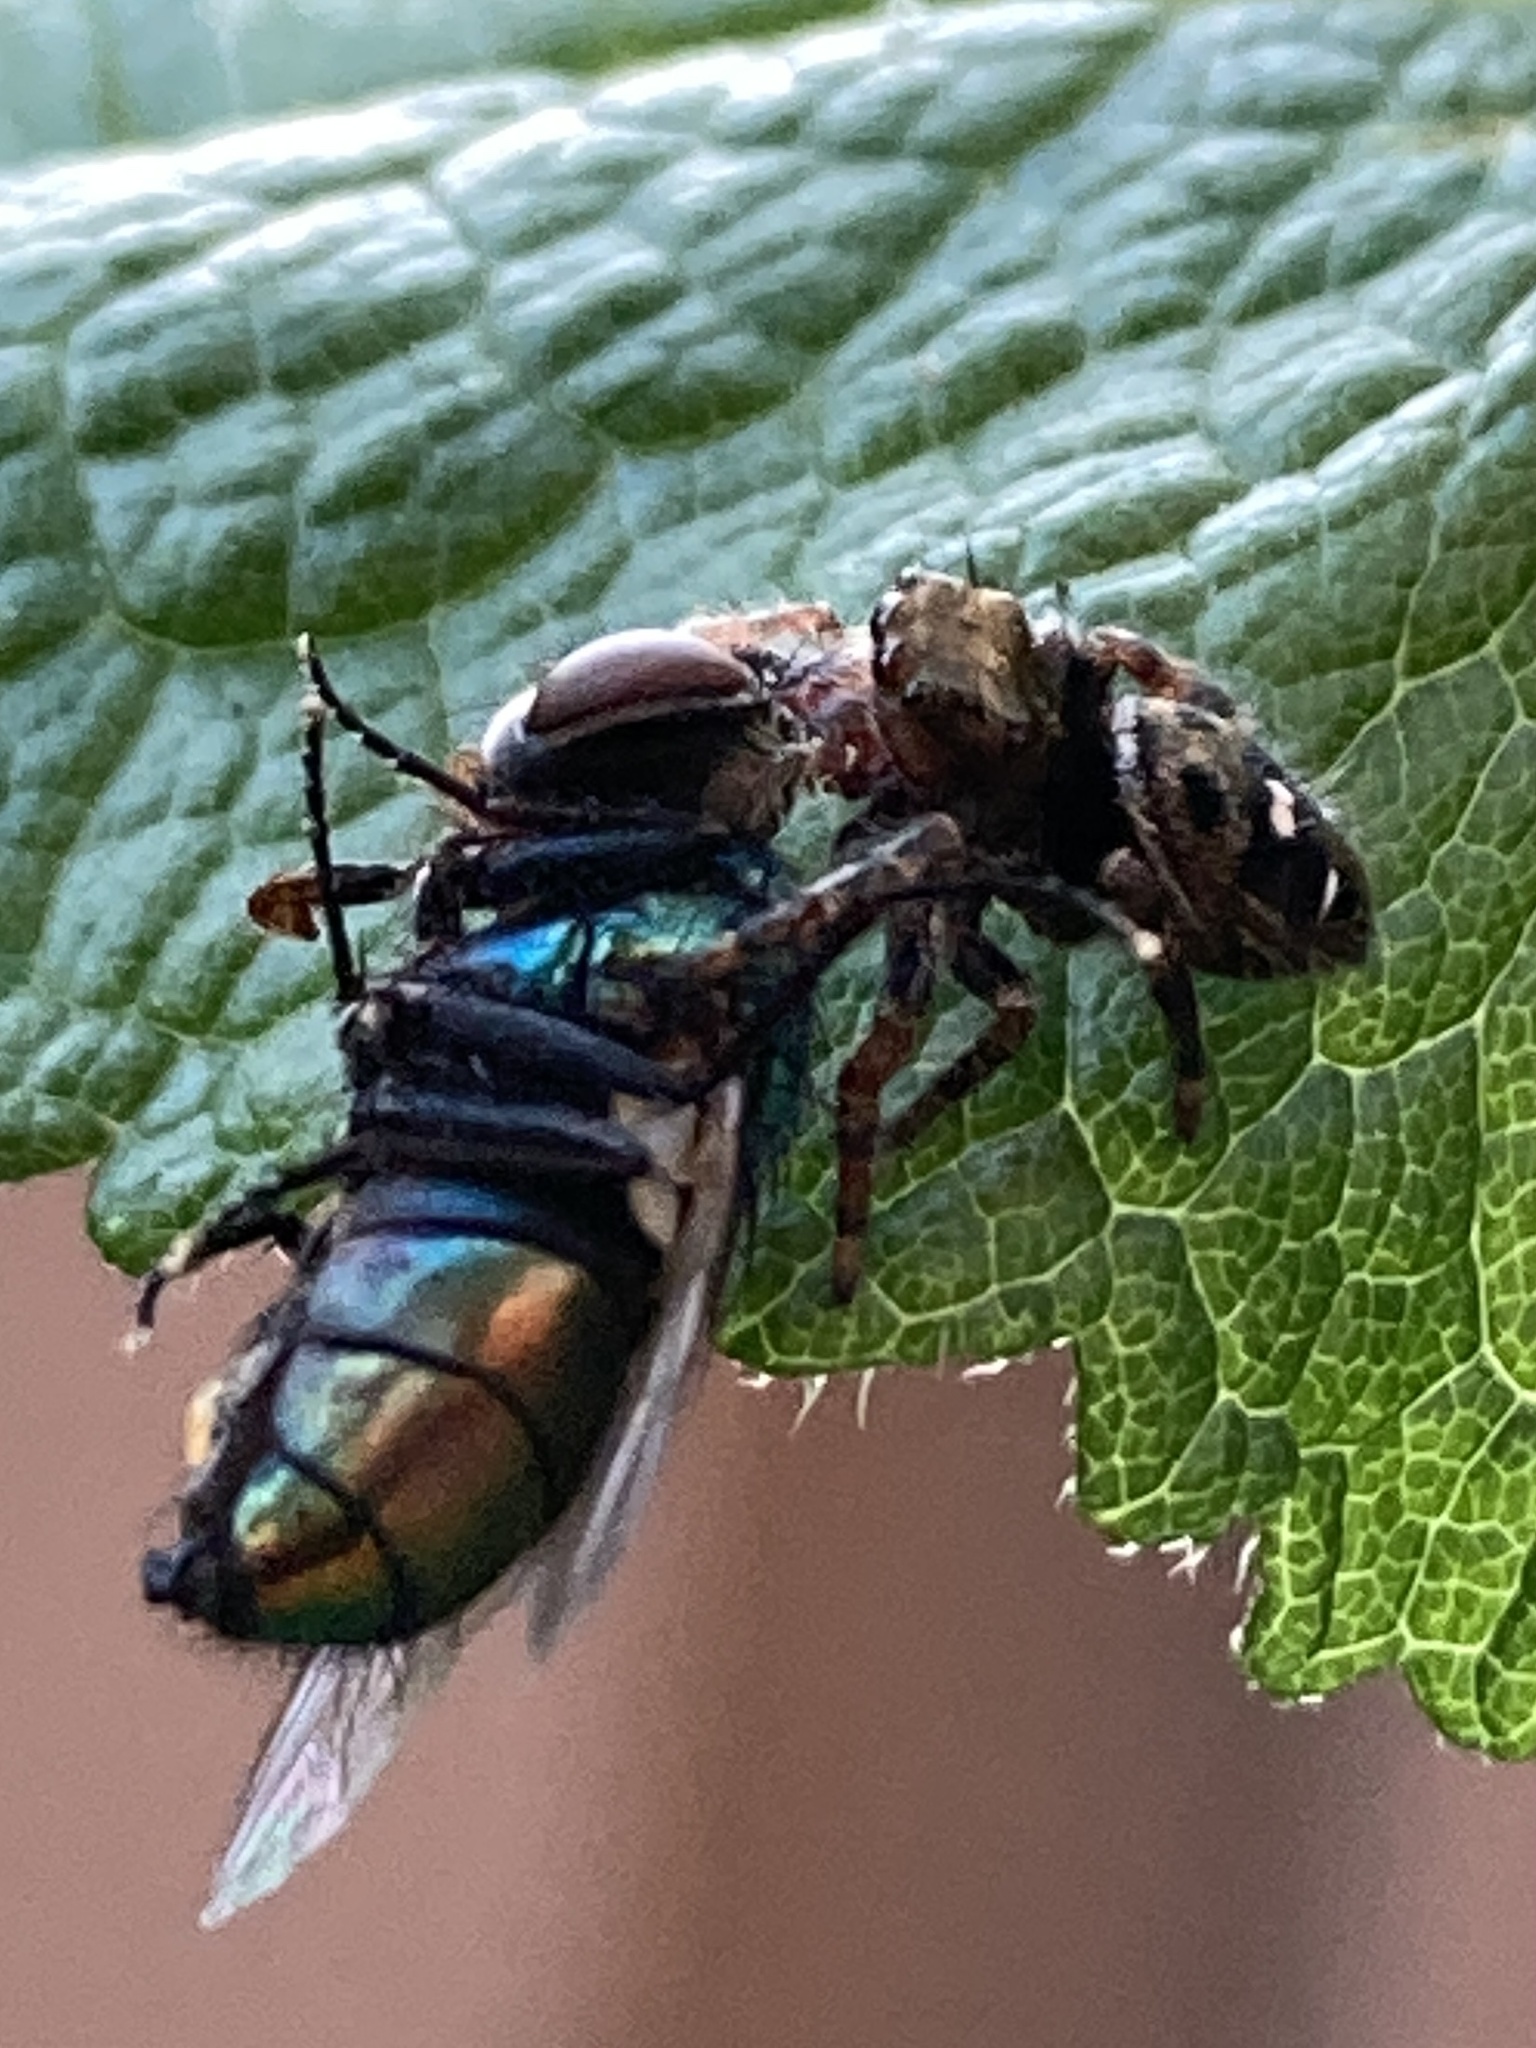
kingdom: Animalia
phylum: Arthropoda
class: Arachnida
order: Araneae
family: Salticidae
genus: Phidippus
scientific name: Phidippus audax
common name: Bold jumper
